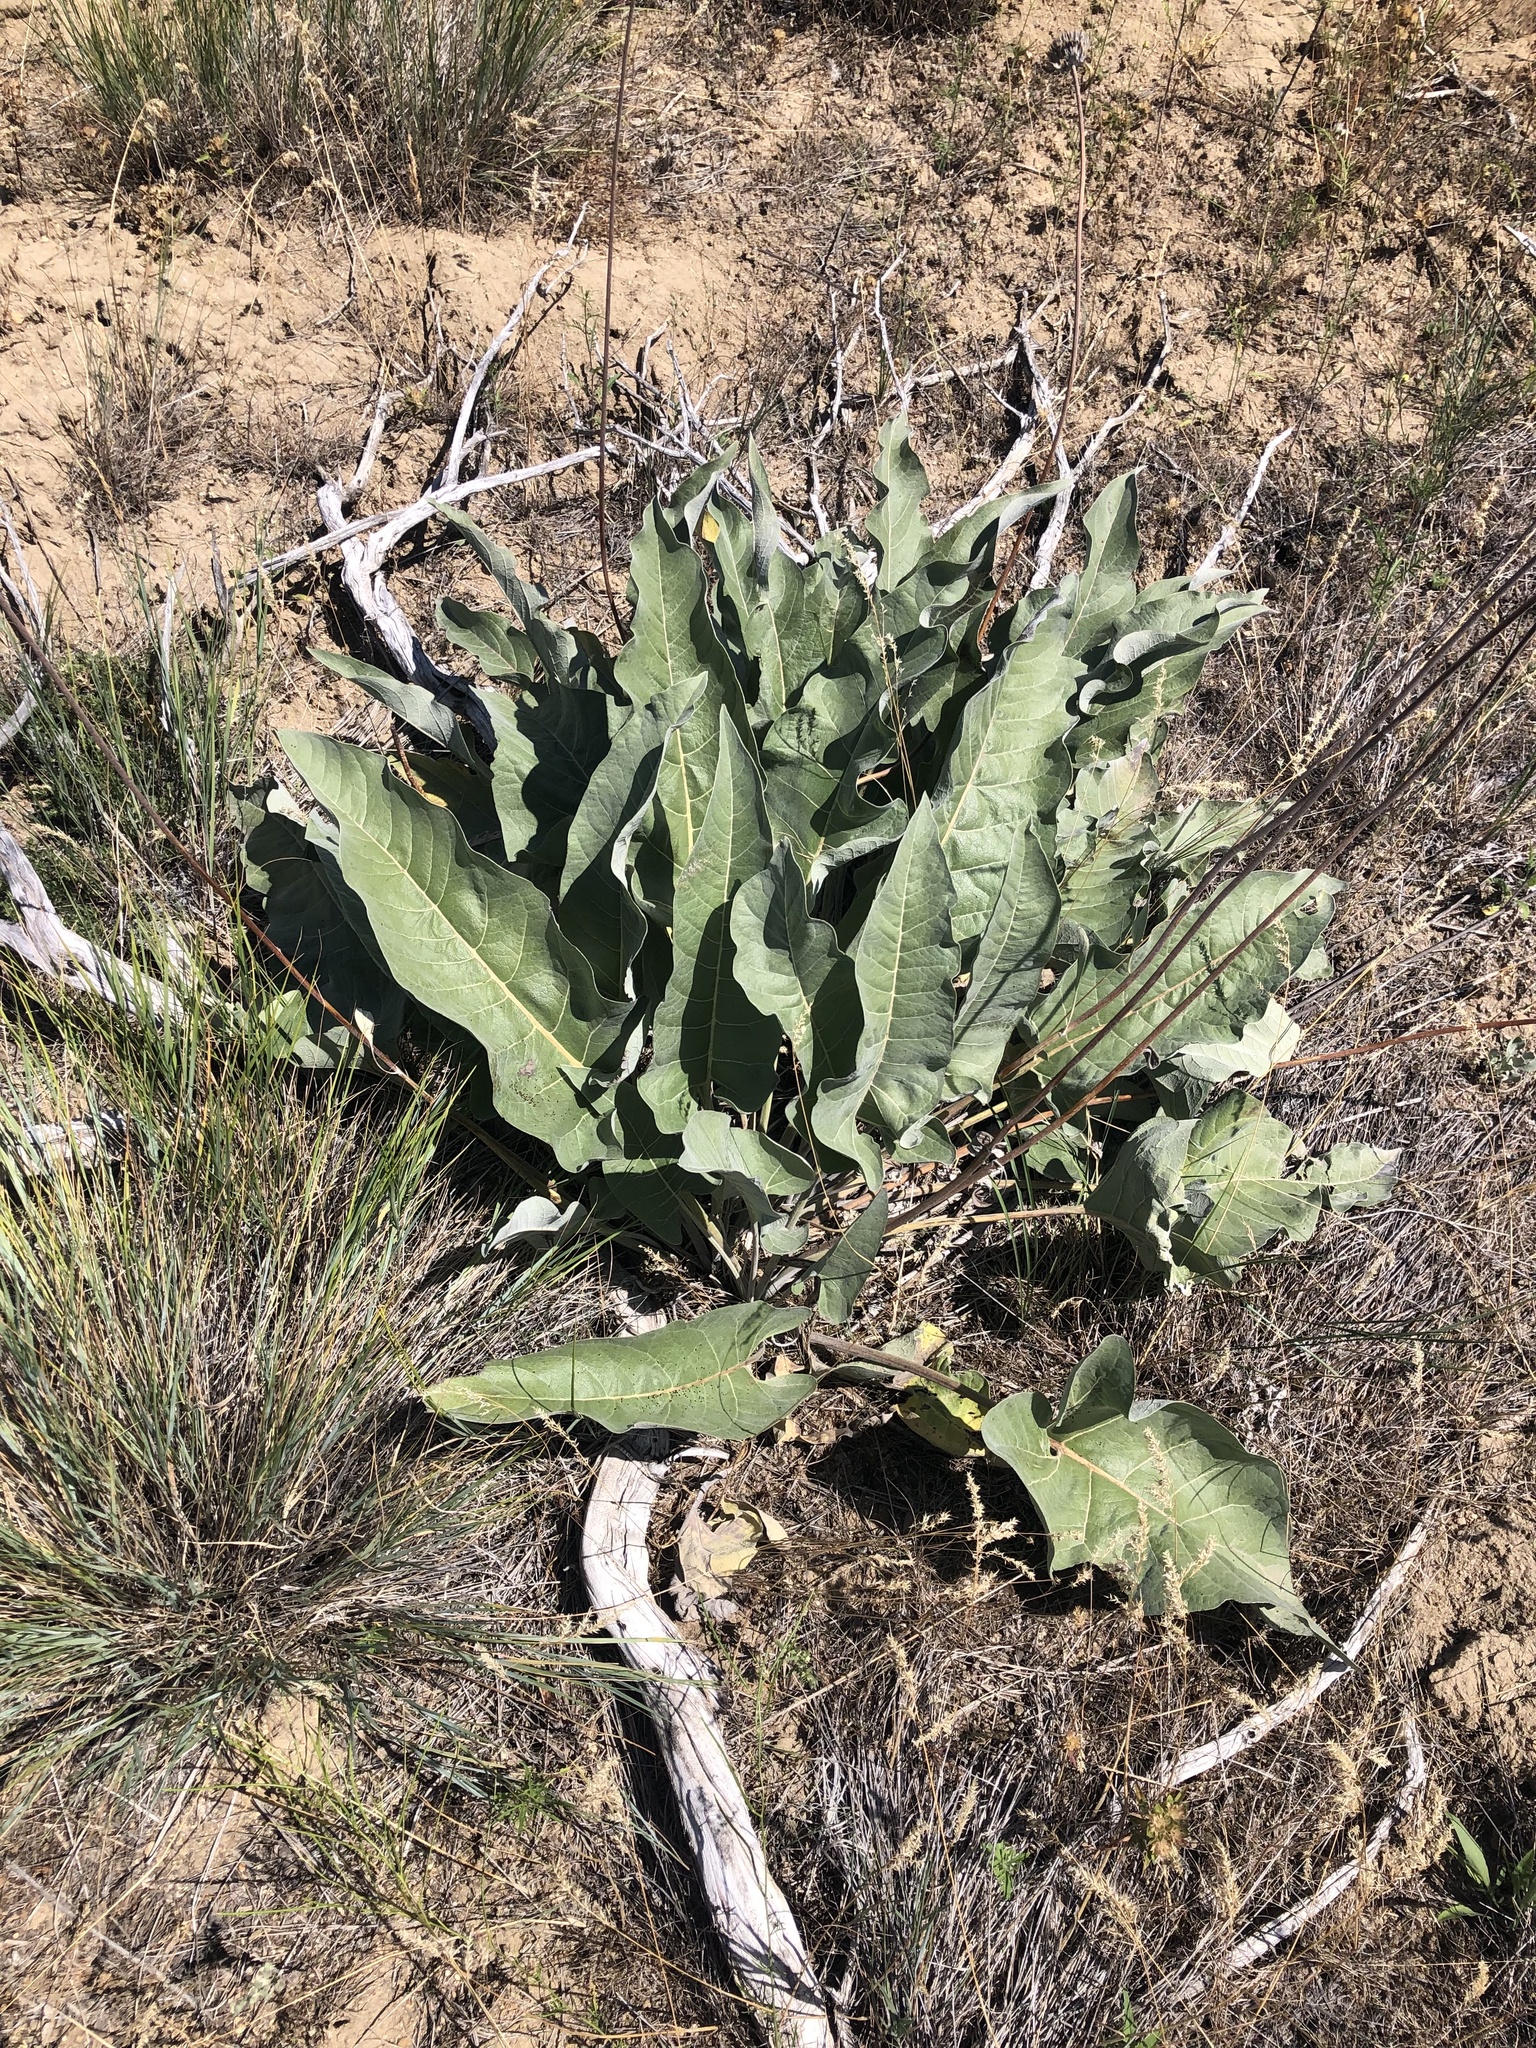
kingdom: Plantae
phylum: Tracheophyta
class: Magnoliopsida
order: Asterales
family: Asteraceae
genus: Wyethia
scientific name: Wyethia sagittata
